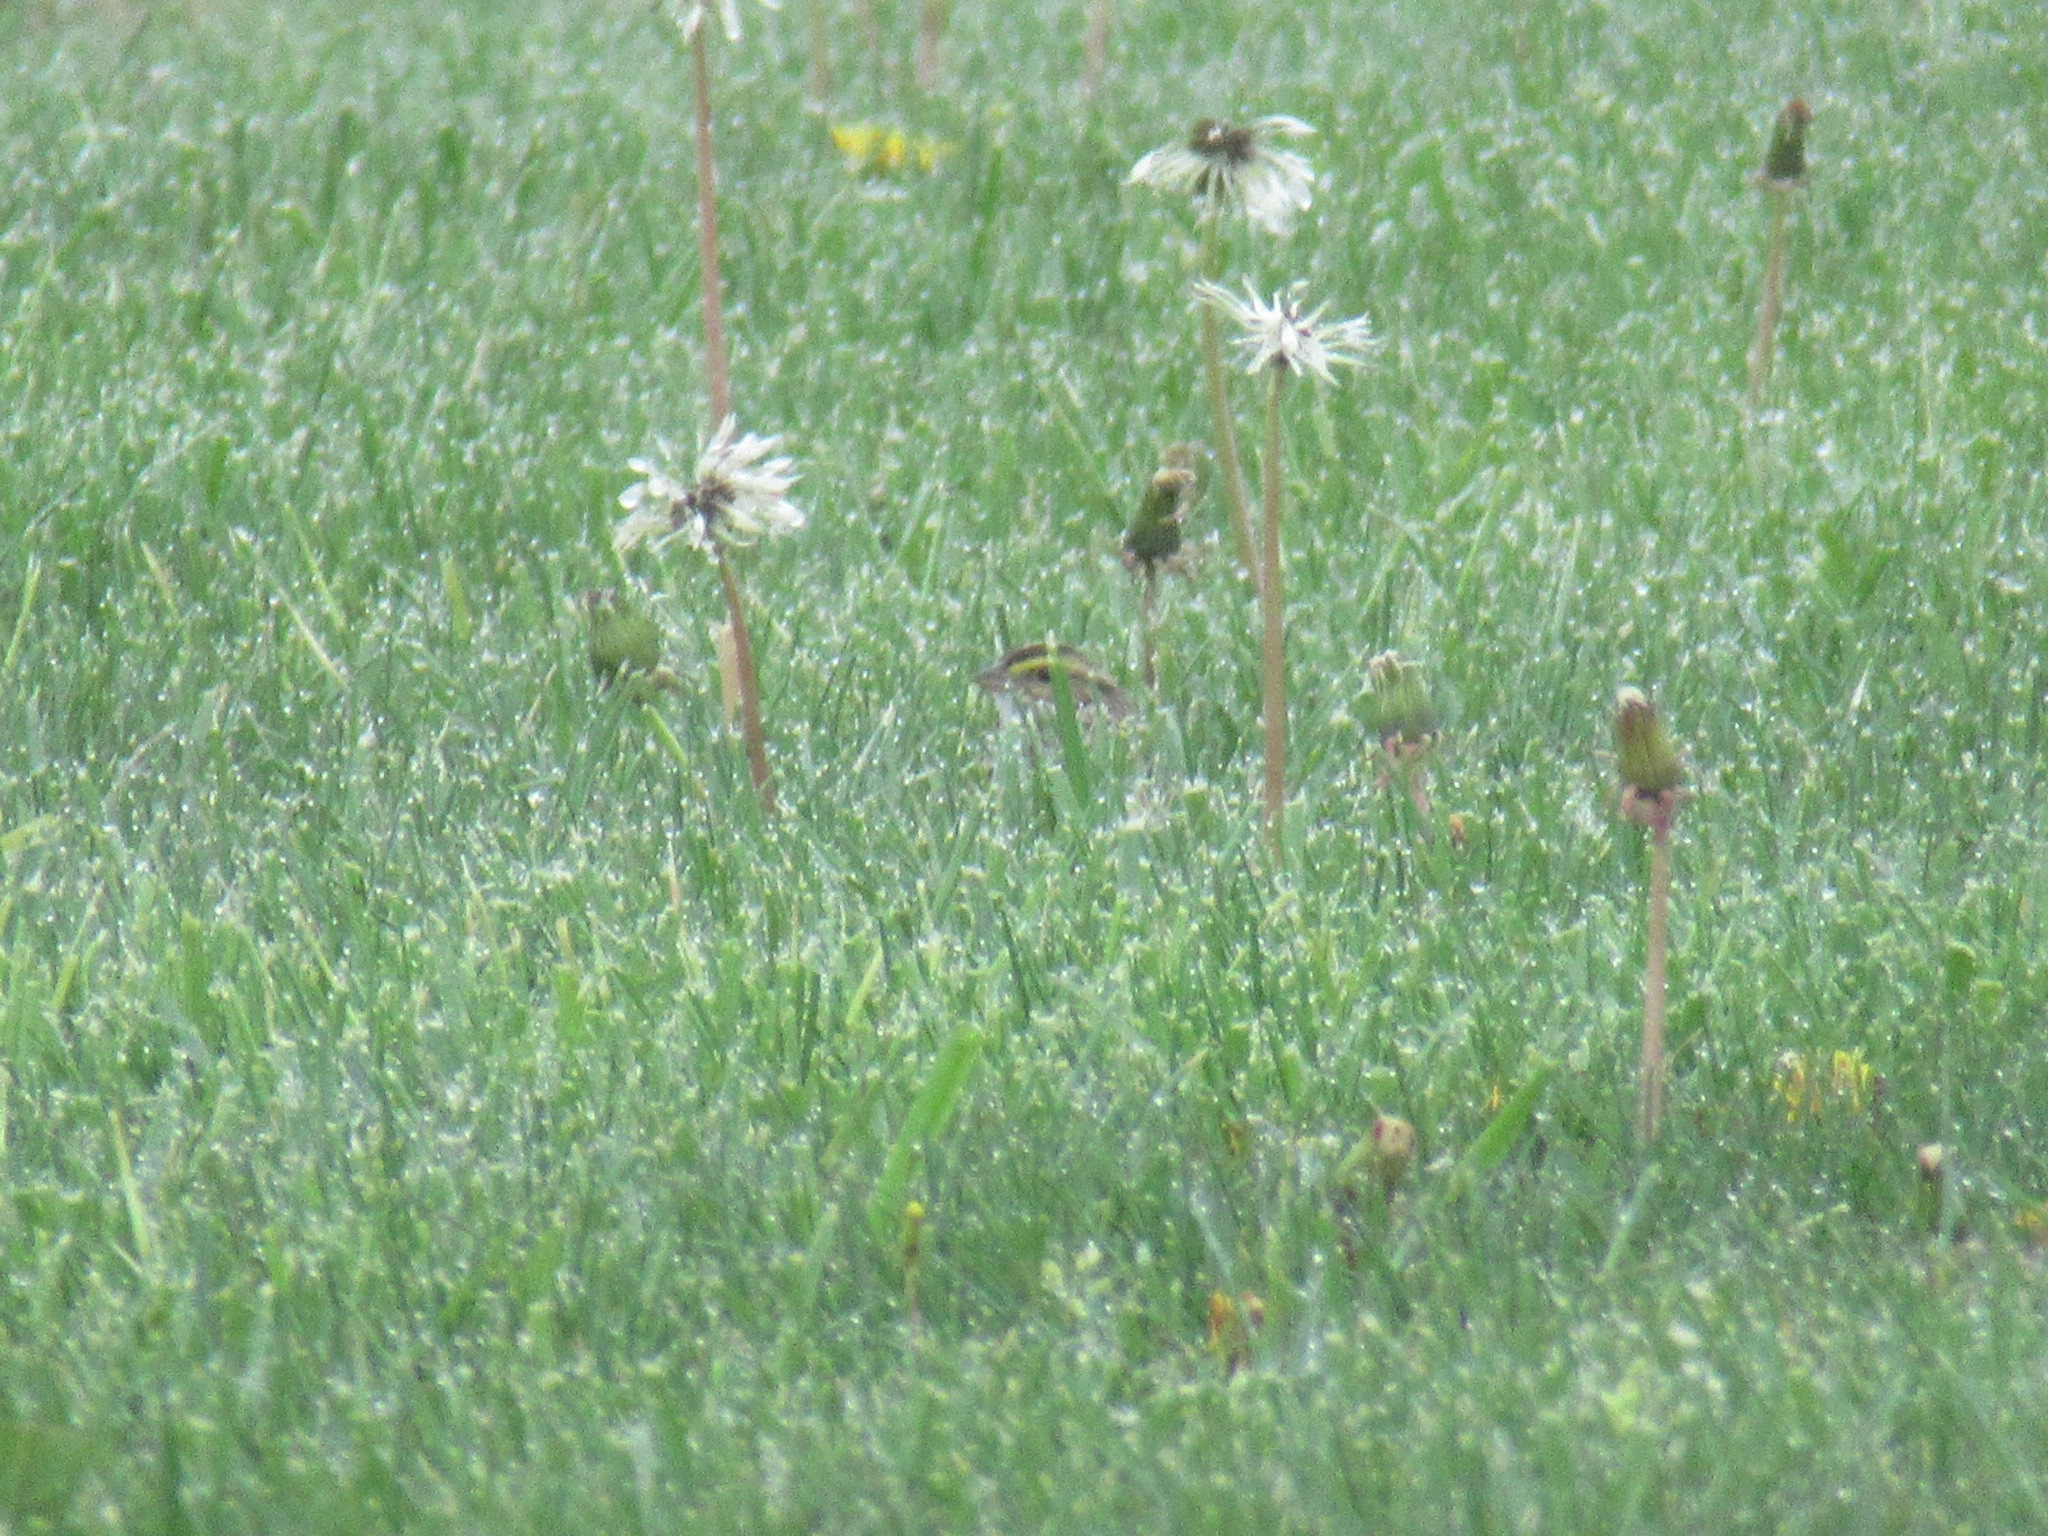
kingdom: Animalia
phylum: Chordata
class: Aves
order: Passeriformes
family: Passerellidae
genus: Passerculus
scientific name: Passerculus sandwichensis
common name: Savannah sparrow
